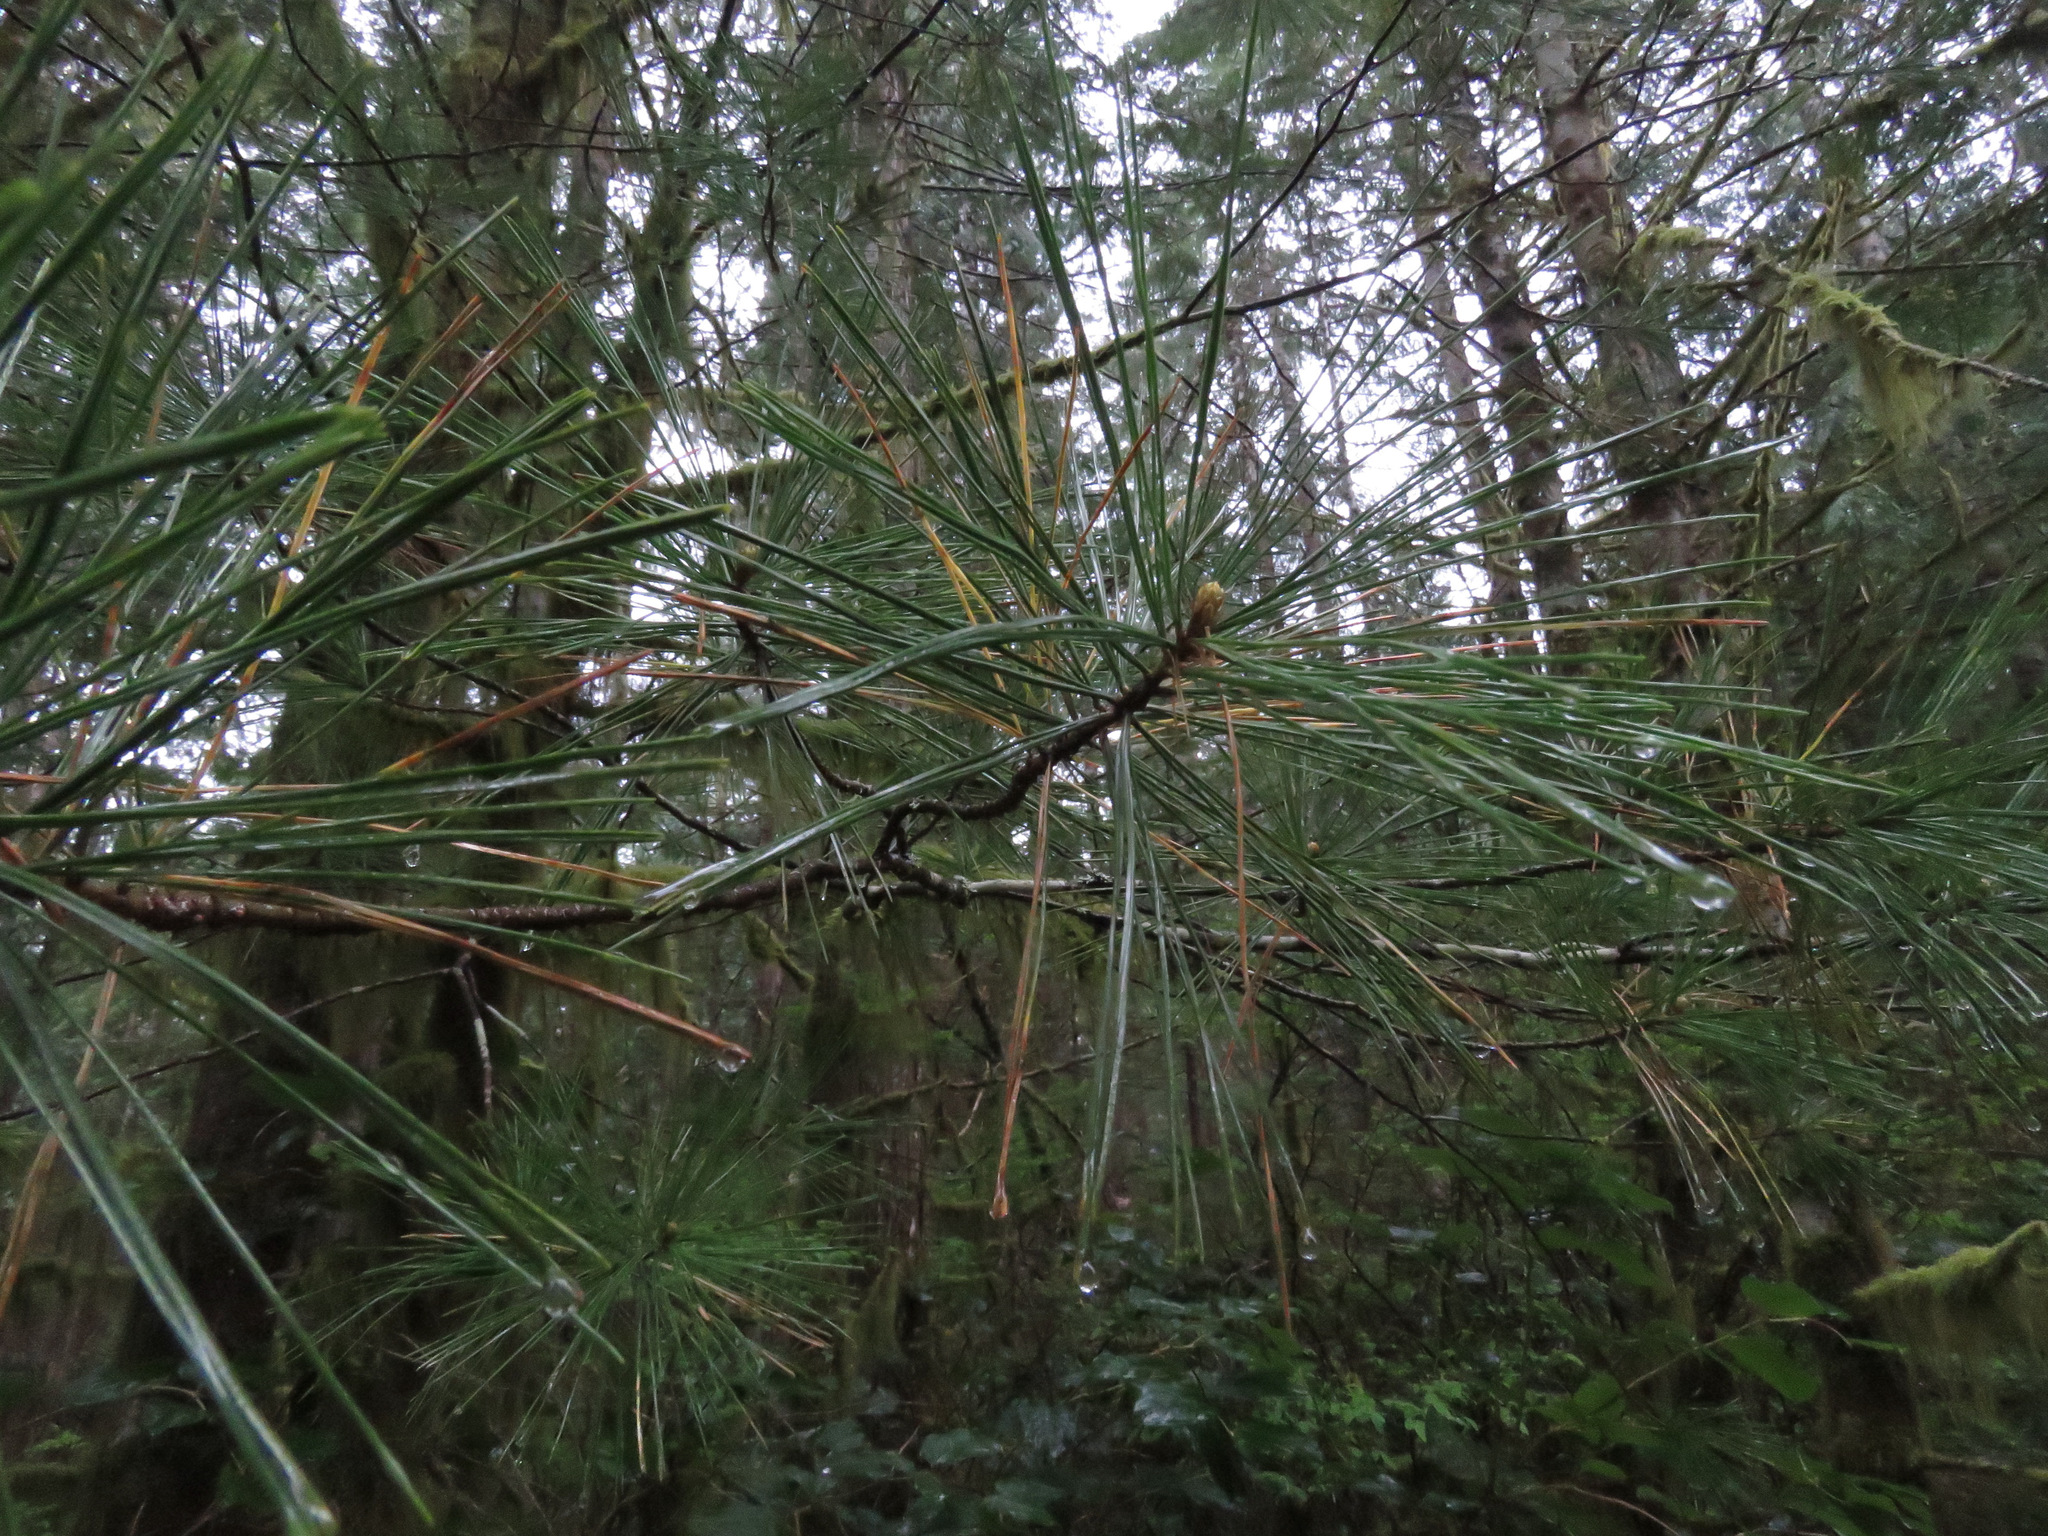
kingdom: Plantae
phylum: Tracheophyta
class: Pinopsida
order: Pinales
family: Pinaceae
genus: Pinus
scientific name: Pinus monticola
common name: Western white pine
